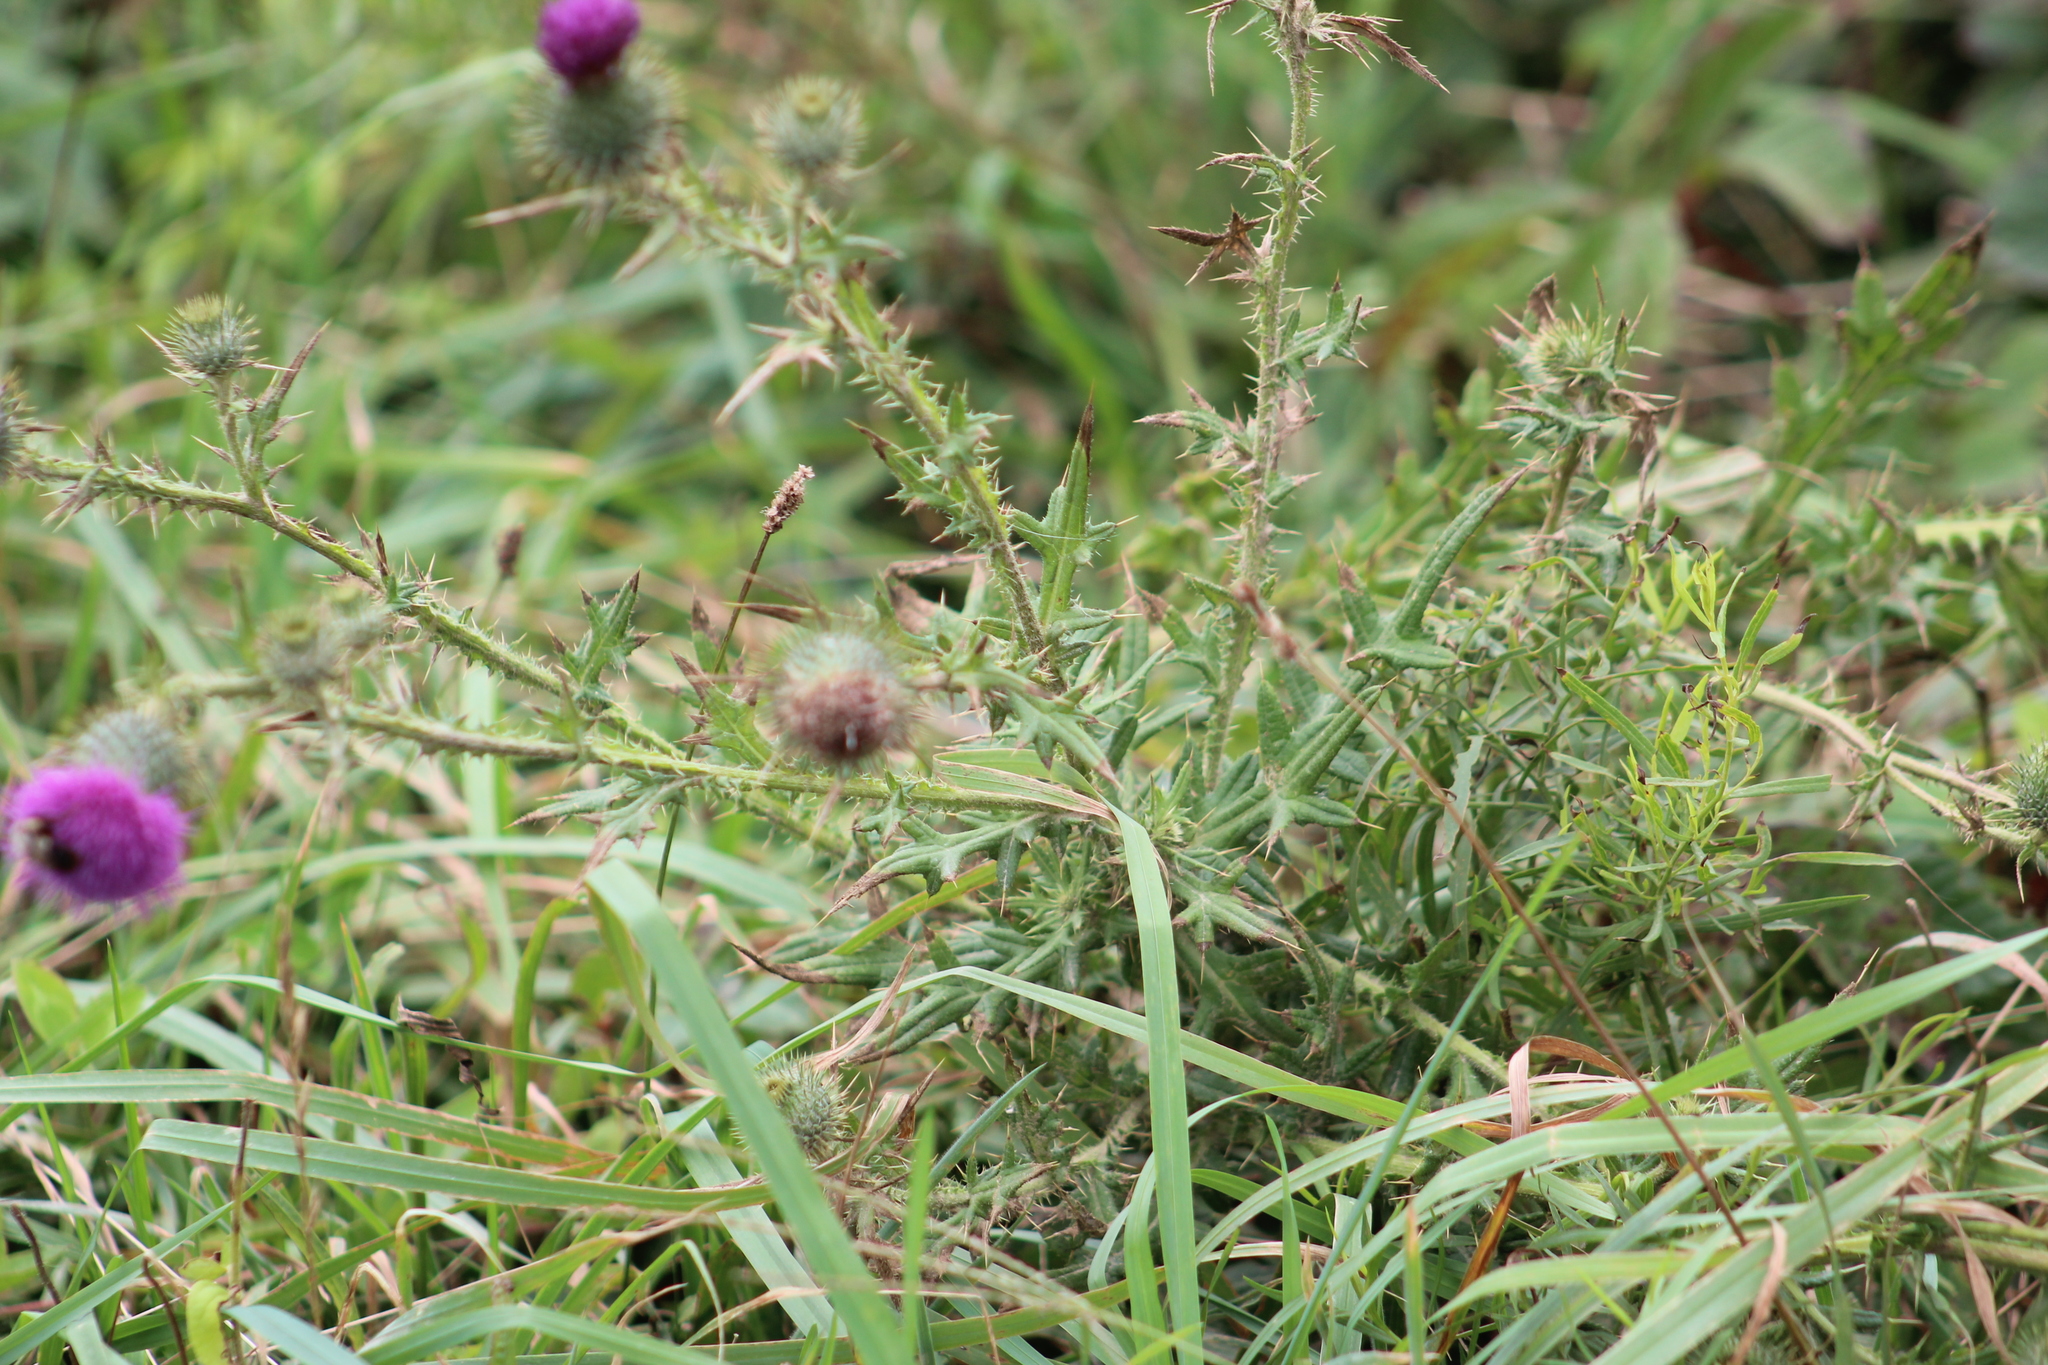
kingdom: Plantae
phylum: Tracheophyta
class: Magnoliopsida
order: Asterales
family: Asteraceae
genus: Cirsium
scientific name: Cirsium vulgare
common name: Bull thistle
